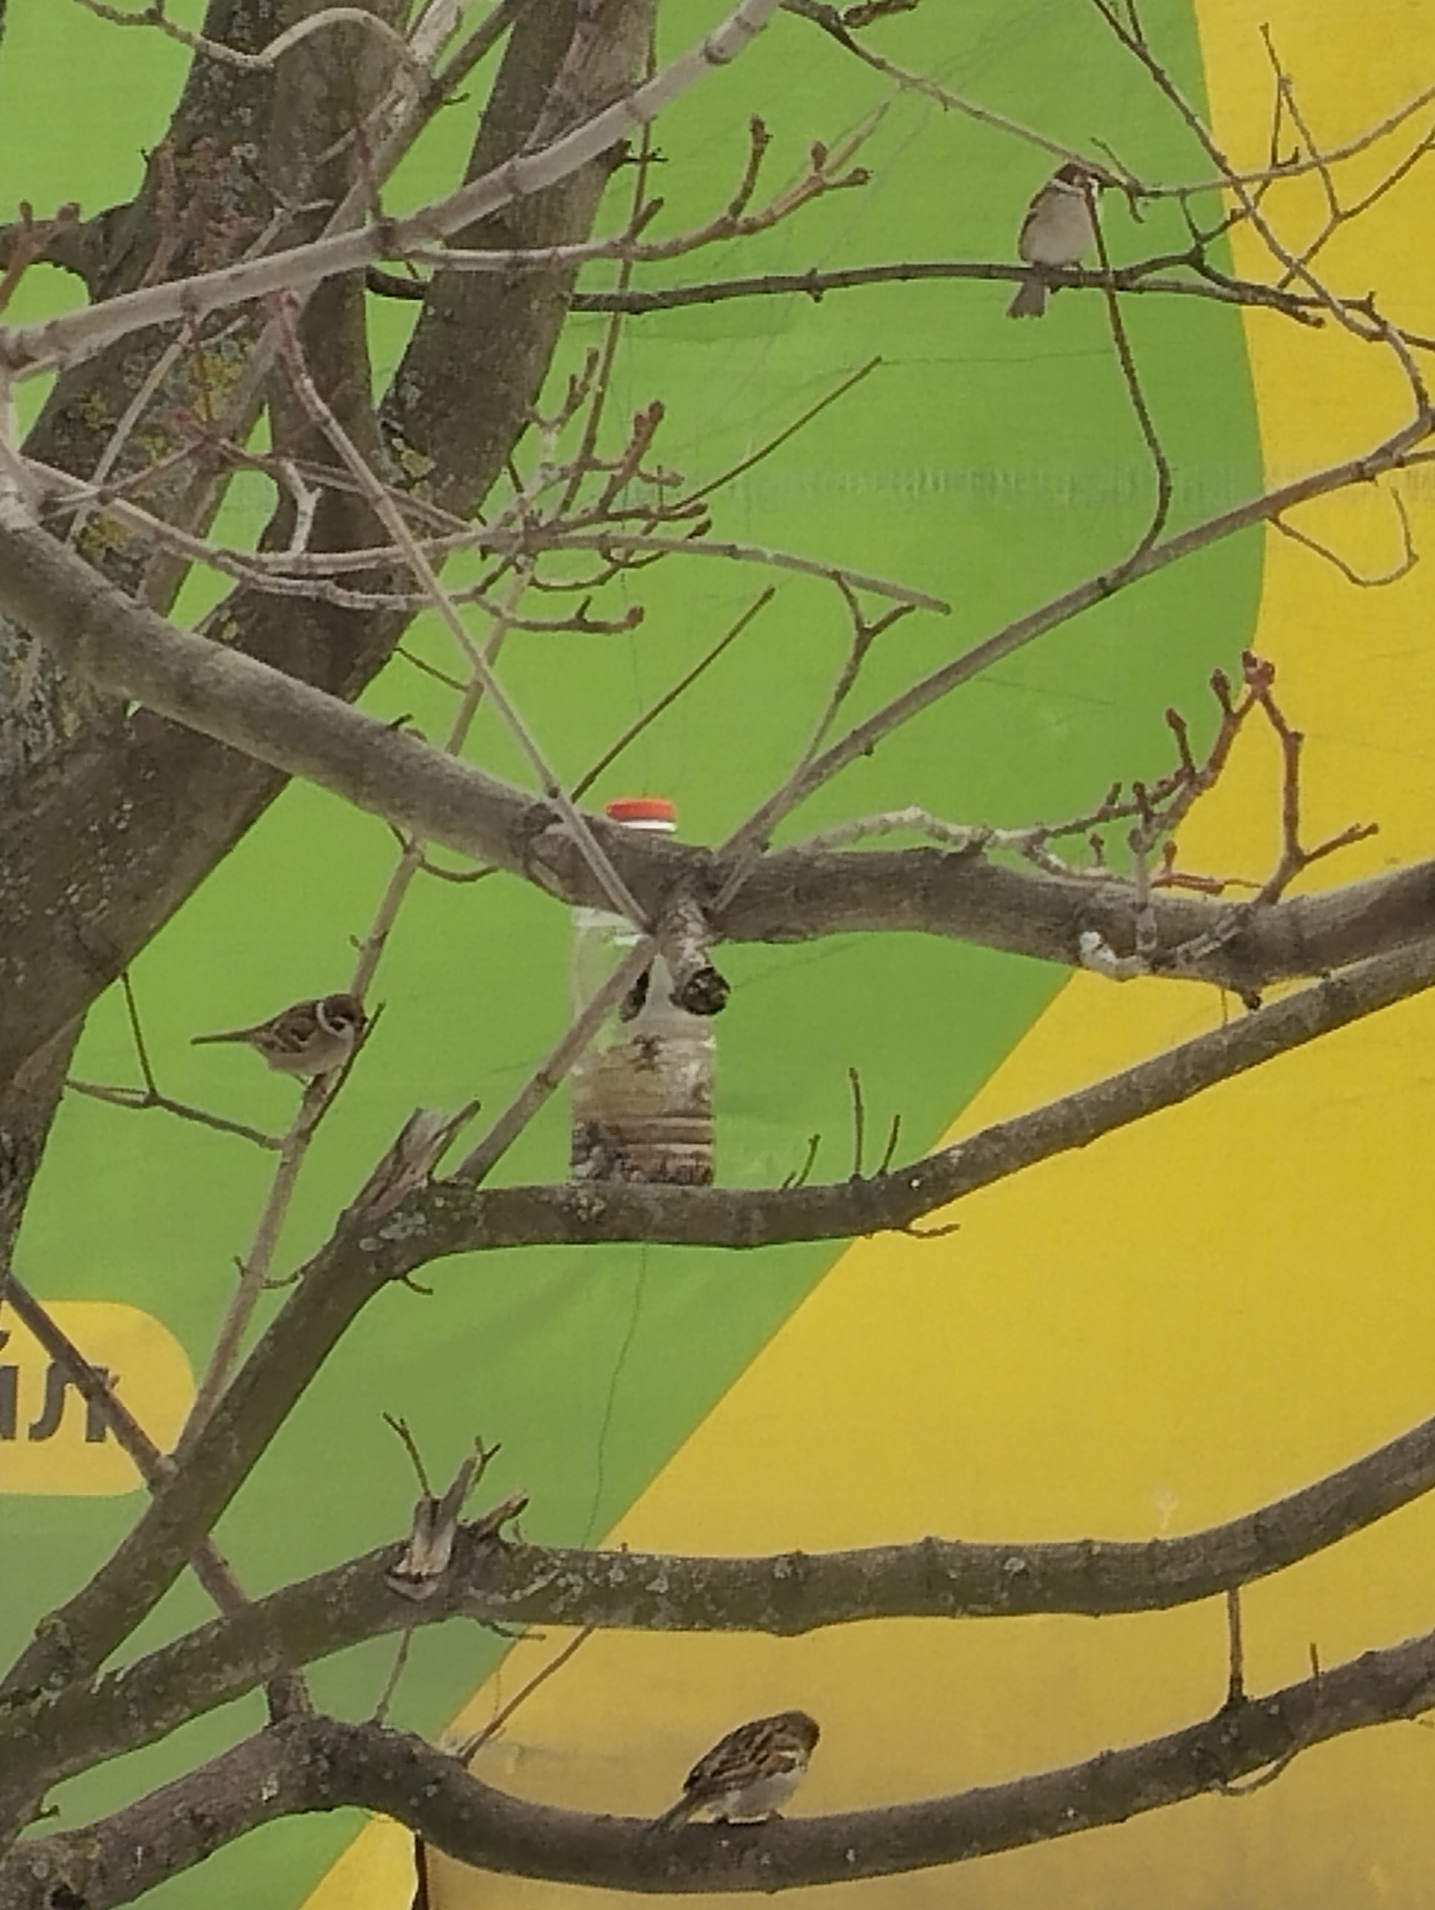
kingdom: Animalia
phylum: Chordata
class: Aves
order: Passeriformes
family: Passeridae
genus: Passer
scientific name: Passer montanus
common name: Eurasian tree sparrow
